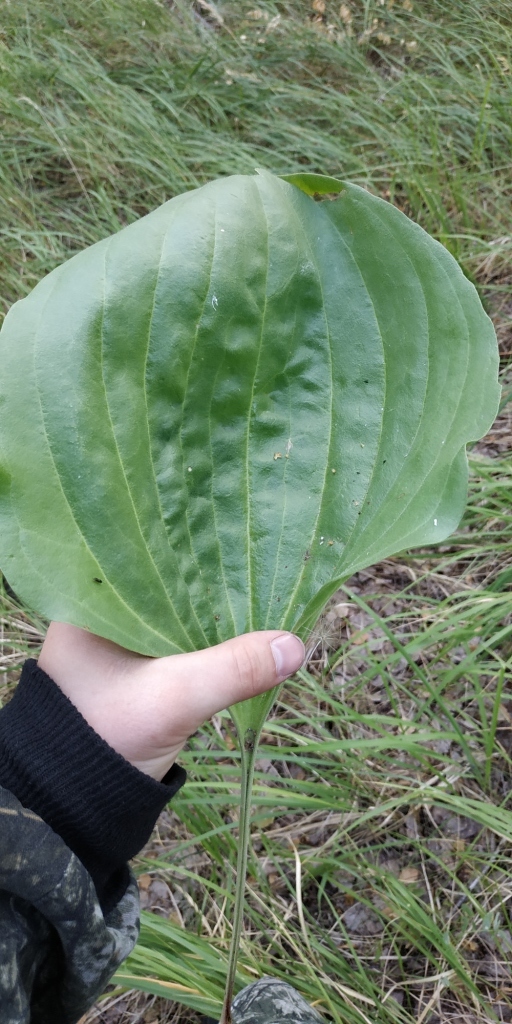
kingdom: Plantae
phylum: Tracheophyta
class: Magnoliopsida
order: Lamiales
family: Plantaginaceae
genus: Plantago
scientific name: Plantago maxima
